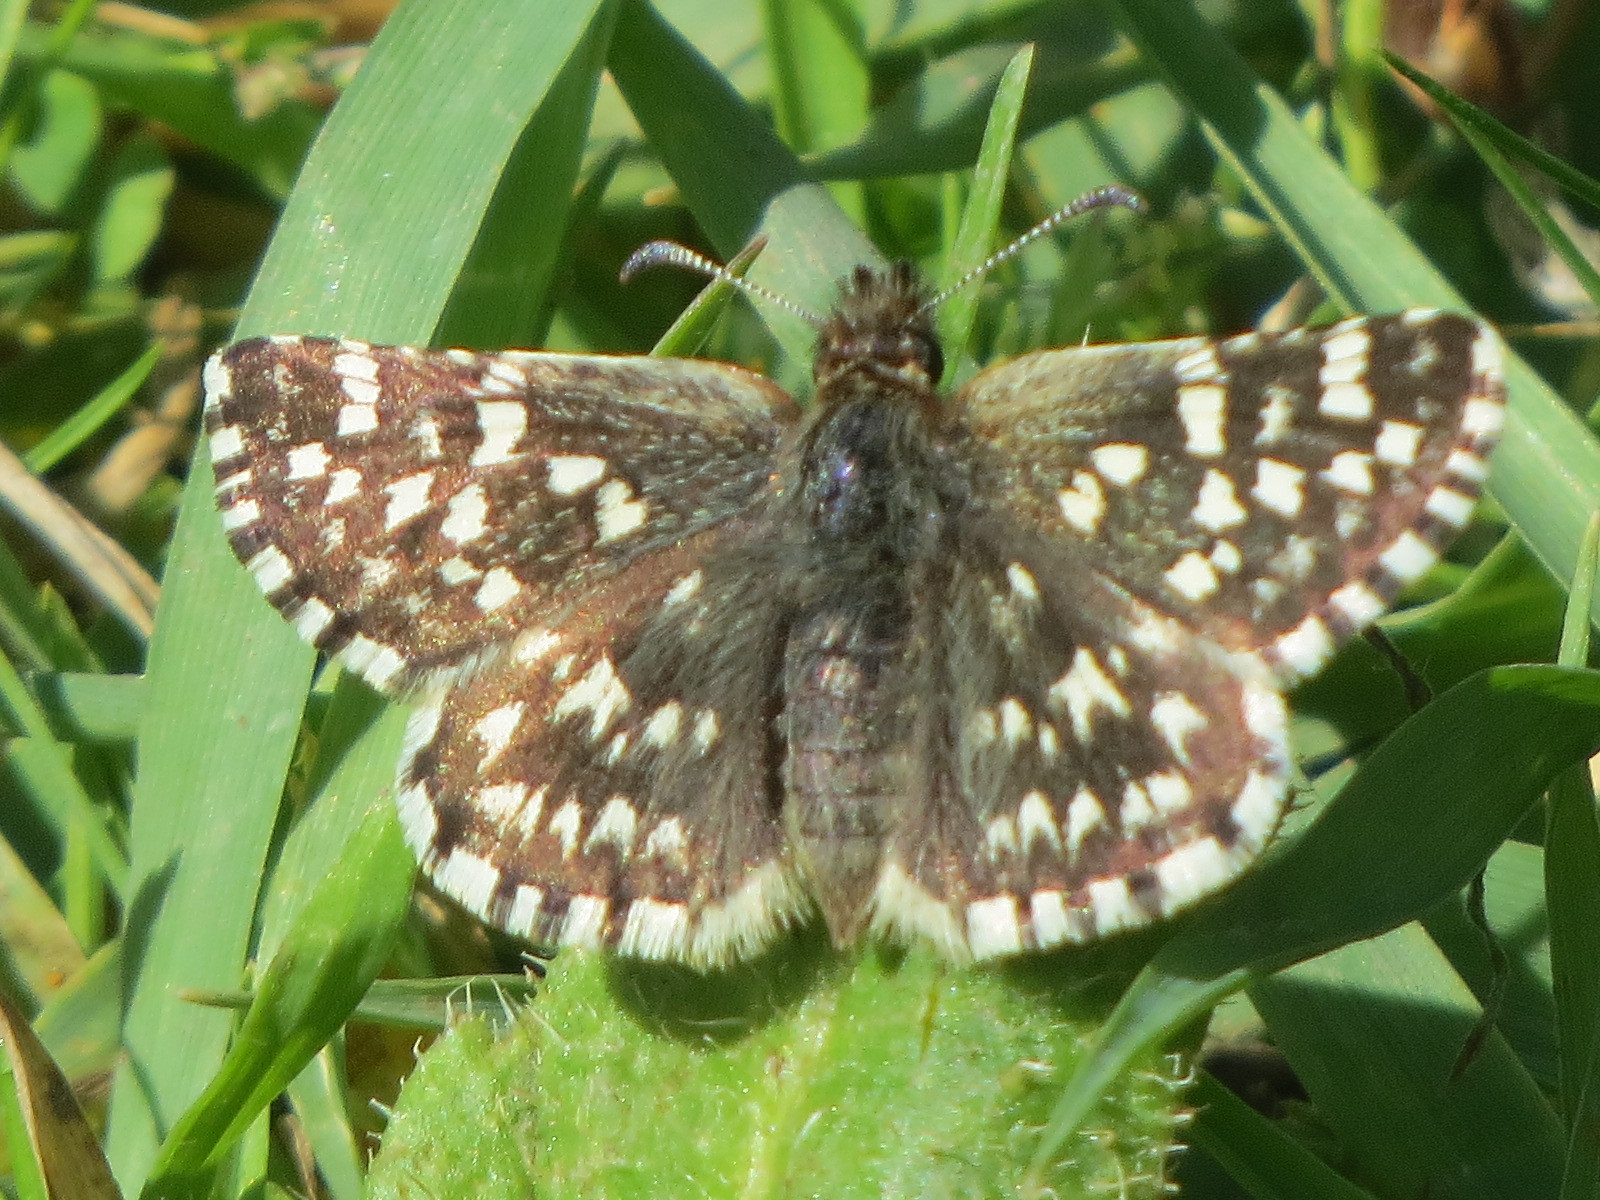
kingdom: Animalia
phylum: Arthropoda
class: Insecta
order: Lepidoptera
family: Hesperiidae
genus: Pyrgus
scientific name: Pyrgus ruralis
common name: Two-banded checkered-skipper
